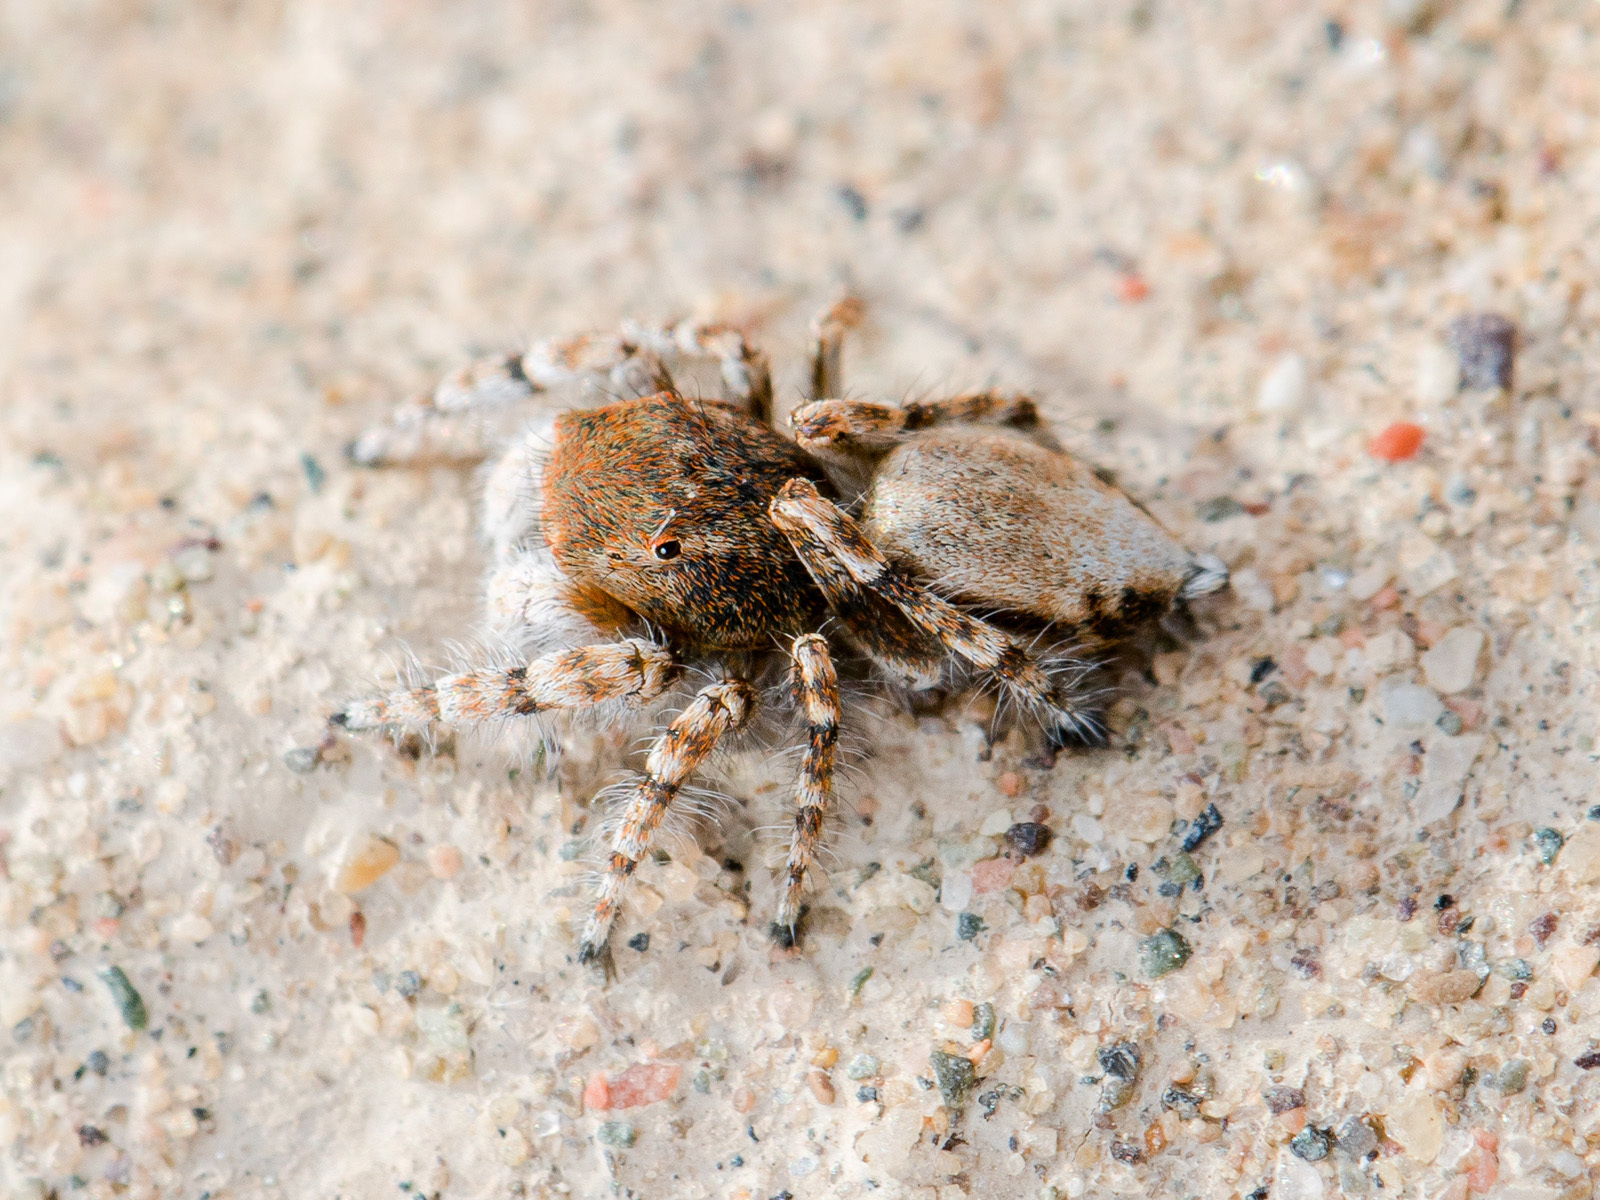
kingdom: Animalia
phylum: Arthropoda
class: Arachnida
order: Araneae
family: Salticidae
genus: Yllenus
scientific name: Yllenus zyuzini
